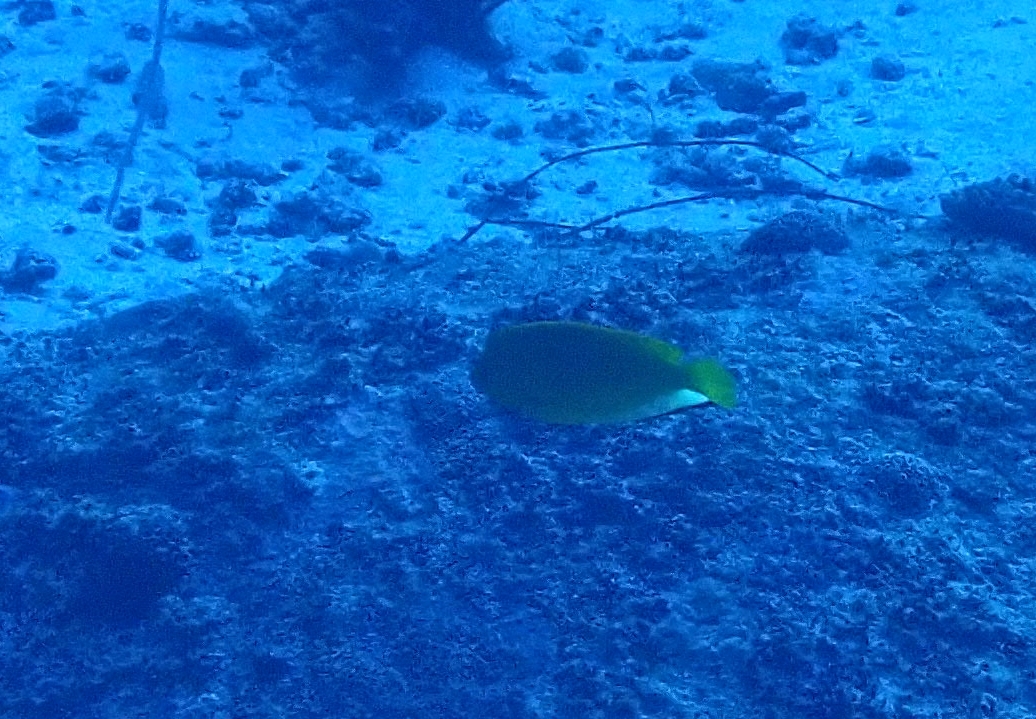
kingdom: Animalia
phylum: Chordata
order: Perciformes
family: Pomacanthidae
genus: Apolemichthys
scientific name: Apolemichthys trimaculatus
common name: Threespot angelfish
